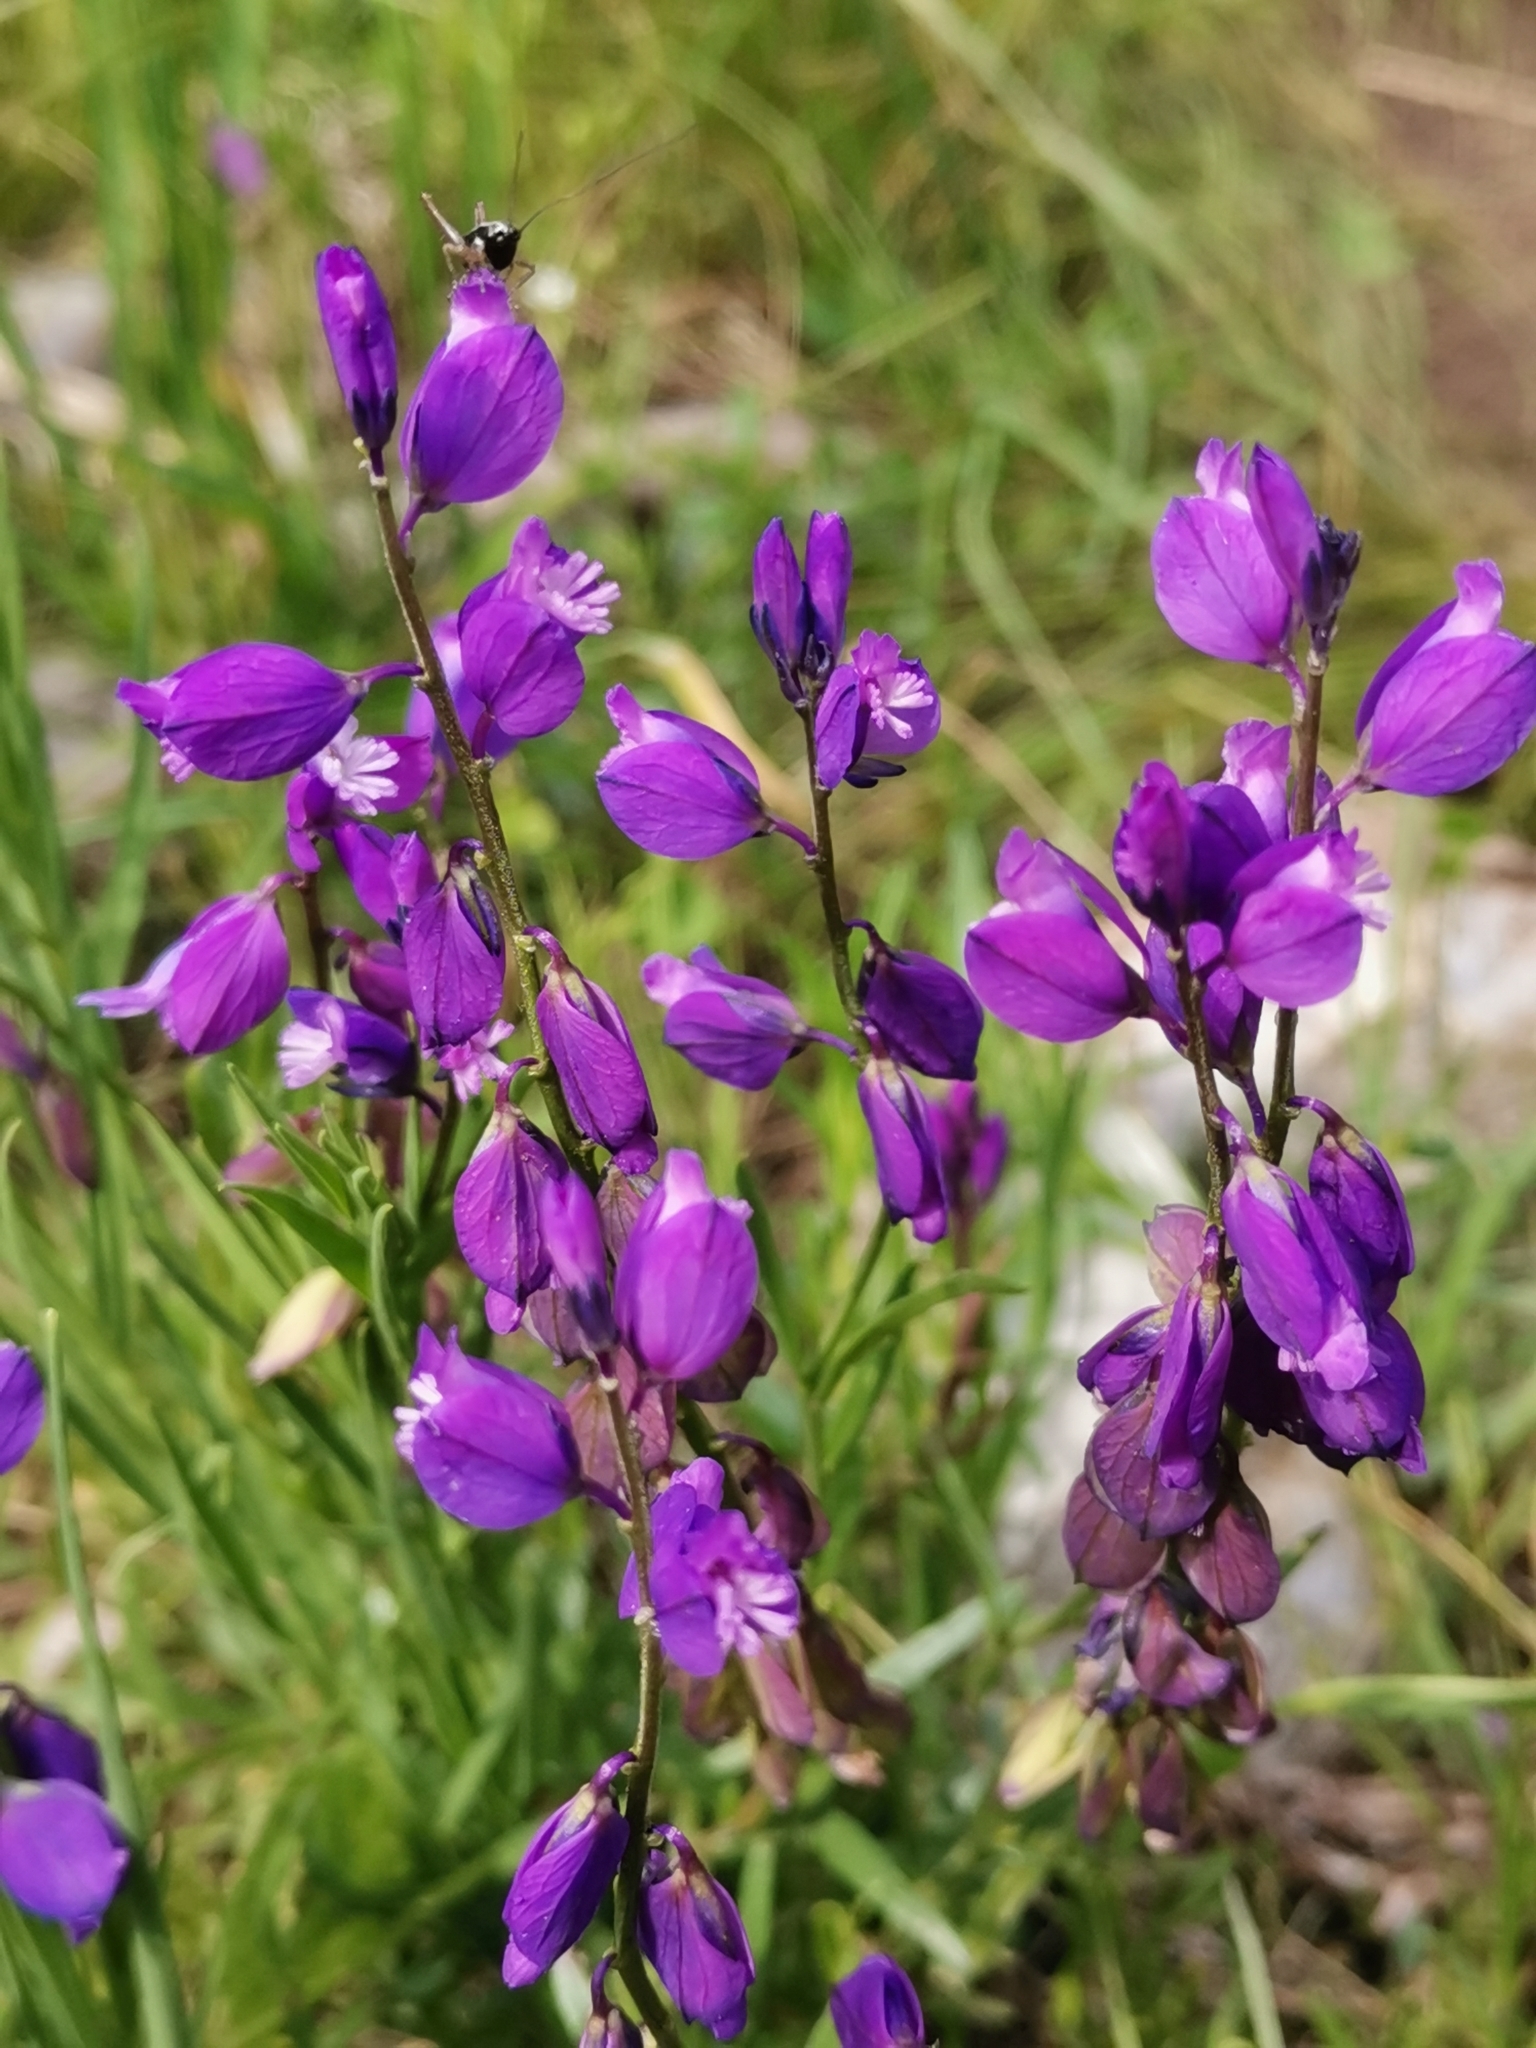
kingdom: Plantae
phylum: Tracheophyta
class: Magnoliopsida
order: Fabales
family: Polygalaceae
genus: Polygala
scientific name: Polygala nicaeensis
